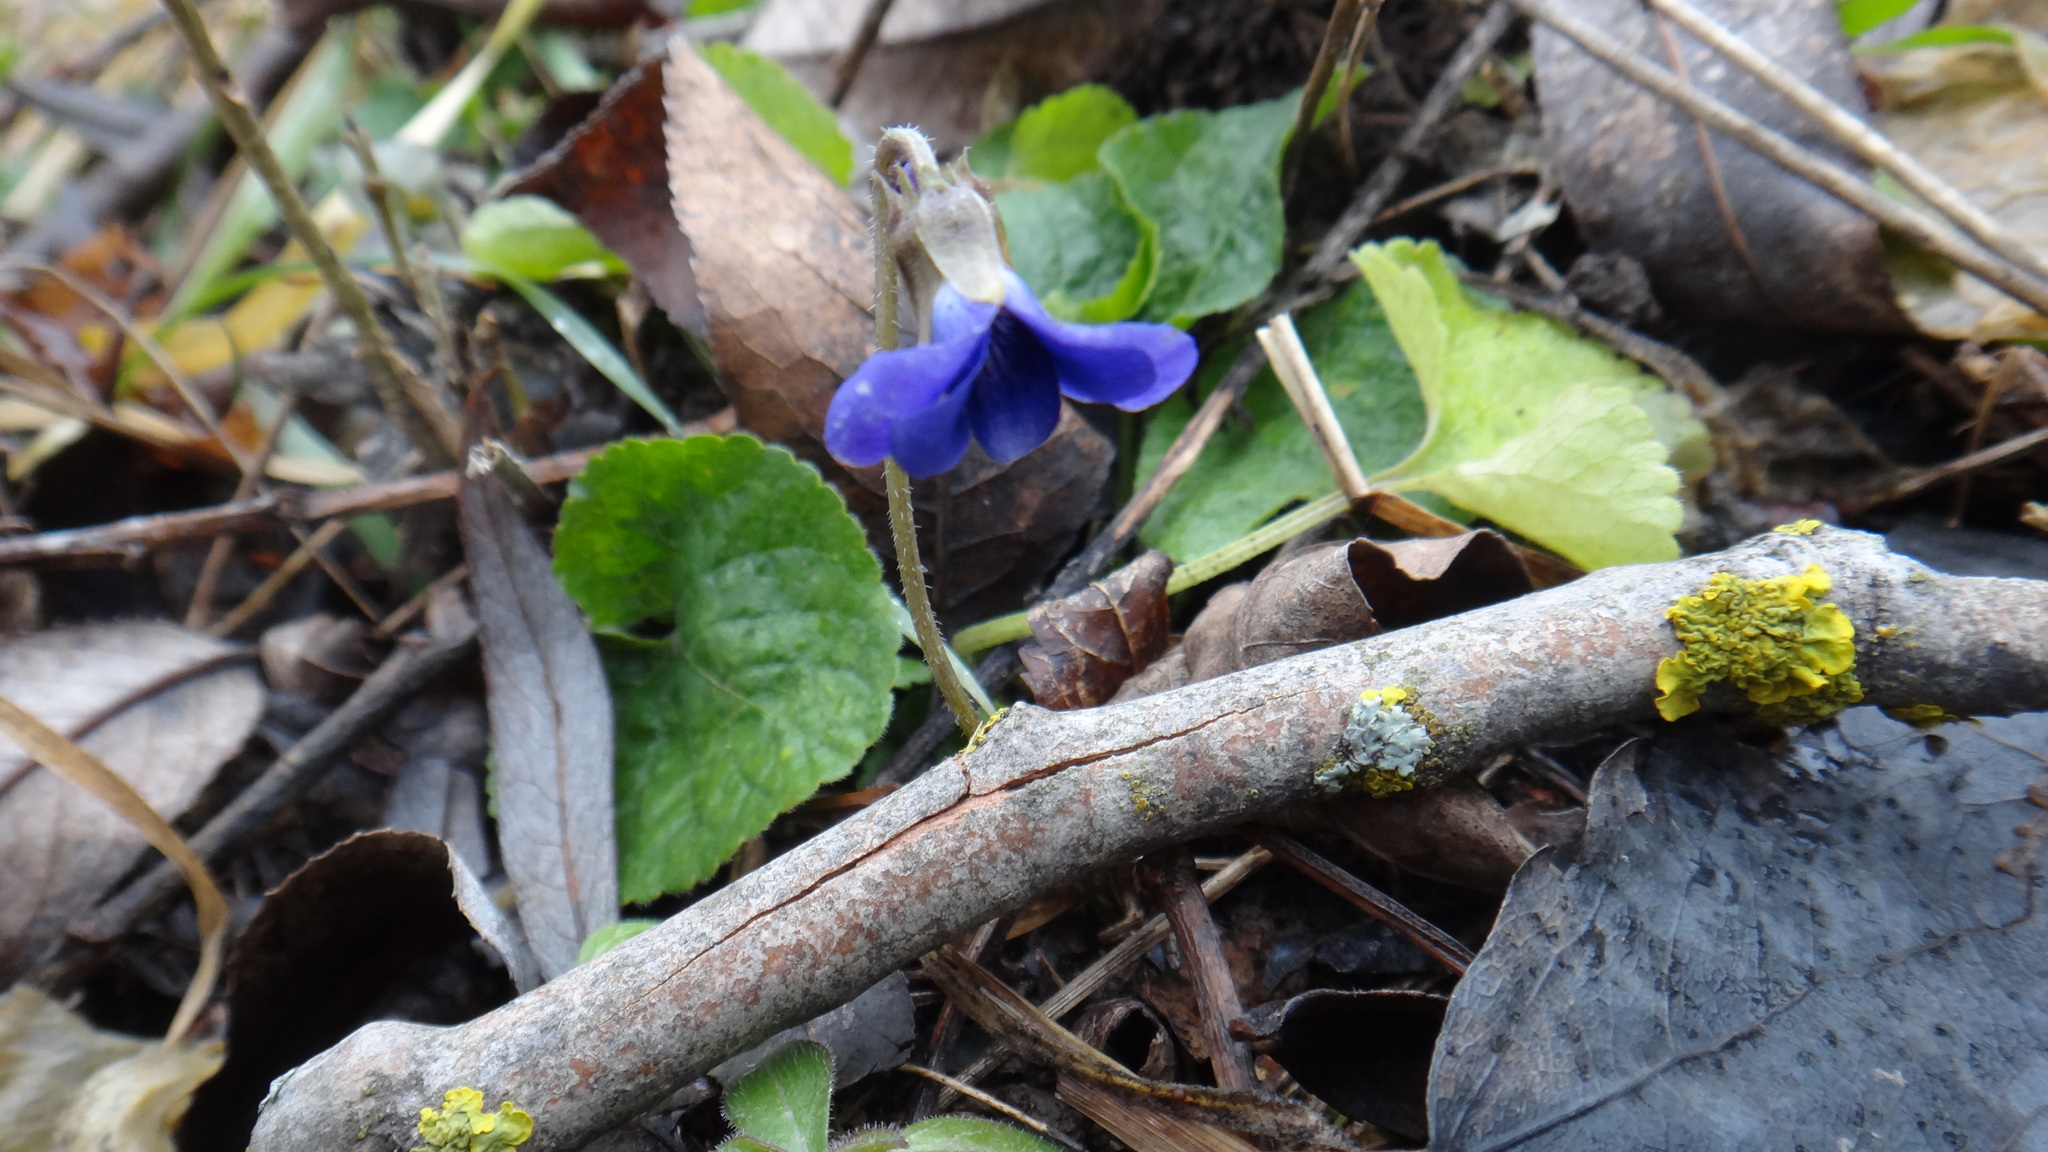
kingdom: Plantae
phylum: Tracheophyta
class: Magnoliopsida
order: Malpighiales
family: Violaceae
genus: Viola
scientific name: Viola odorata
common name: Sweet violet
